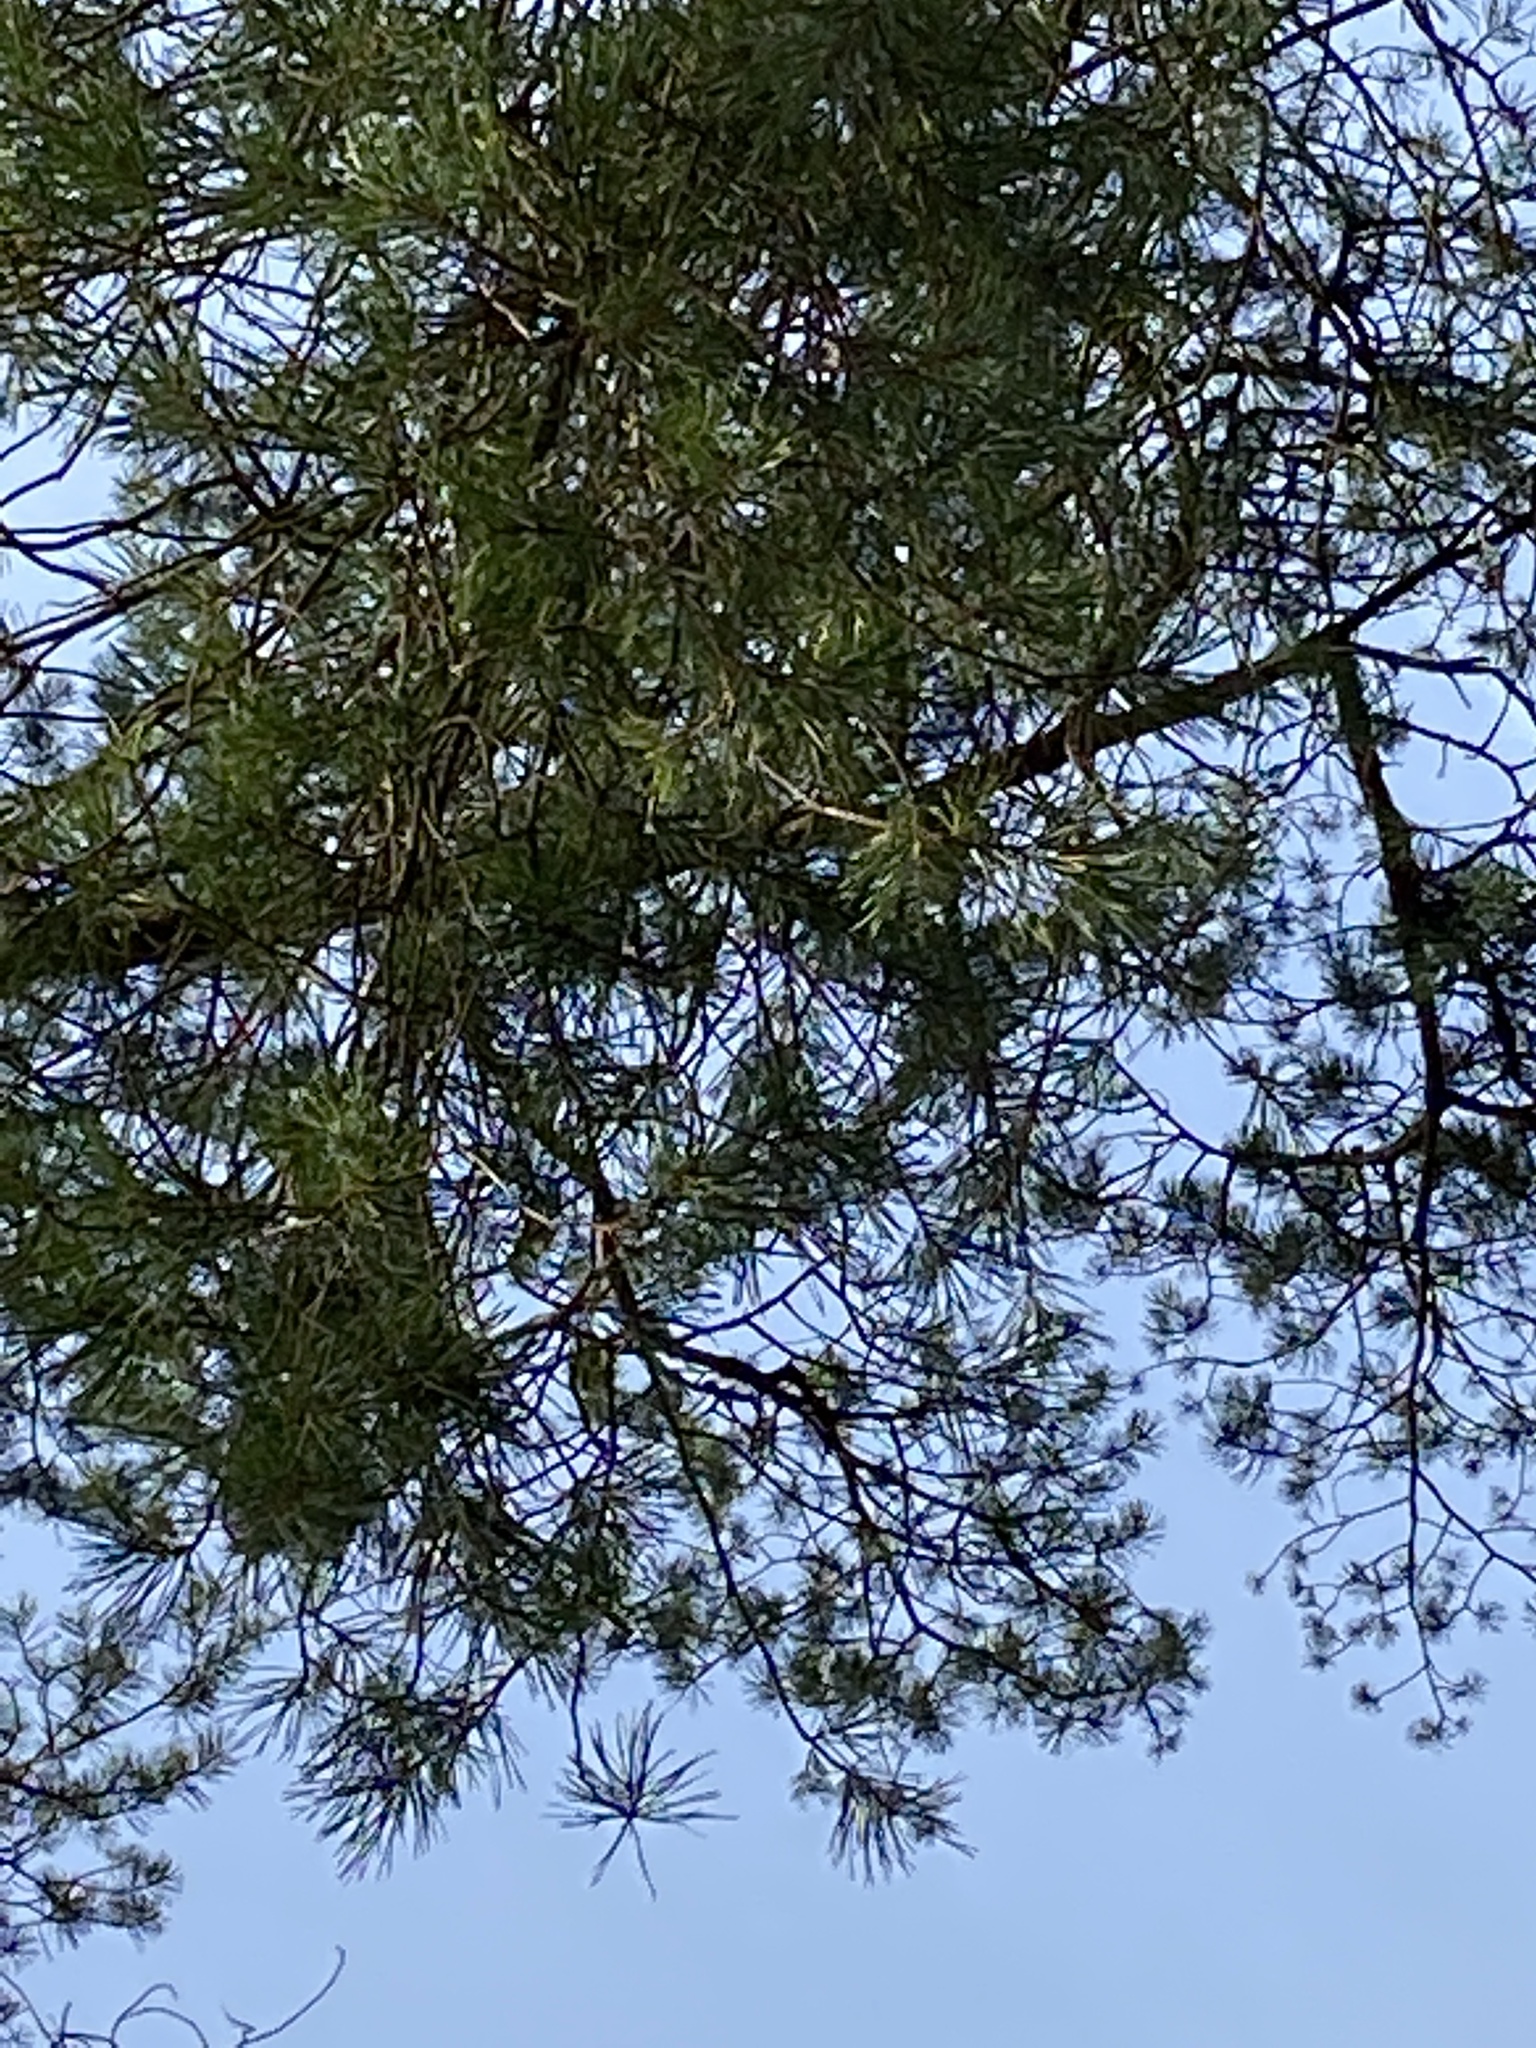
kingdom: Plantae
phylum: Tracheophyta
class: Pinopsida
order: Pinales
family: Pinaceae
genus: Pinus
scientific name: Pinus sylvestris
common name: Scots pine
